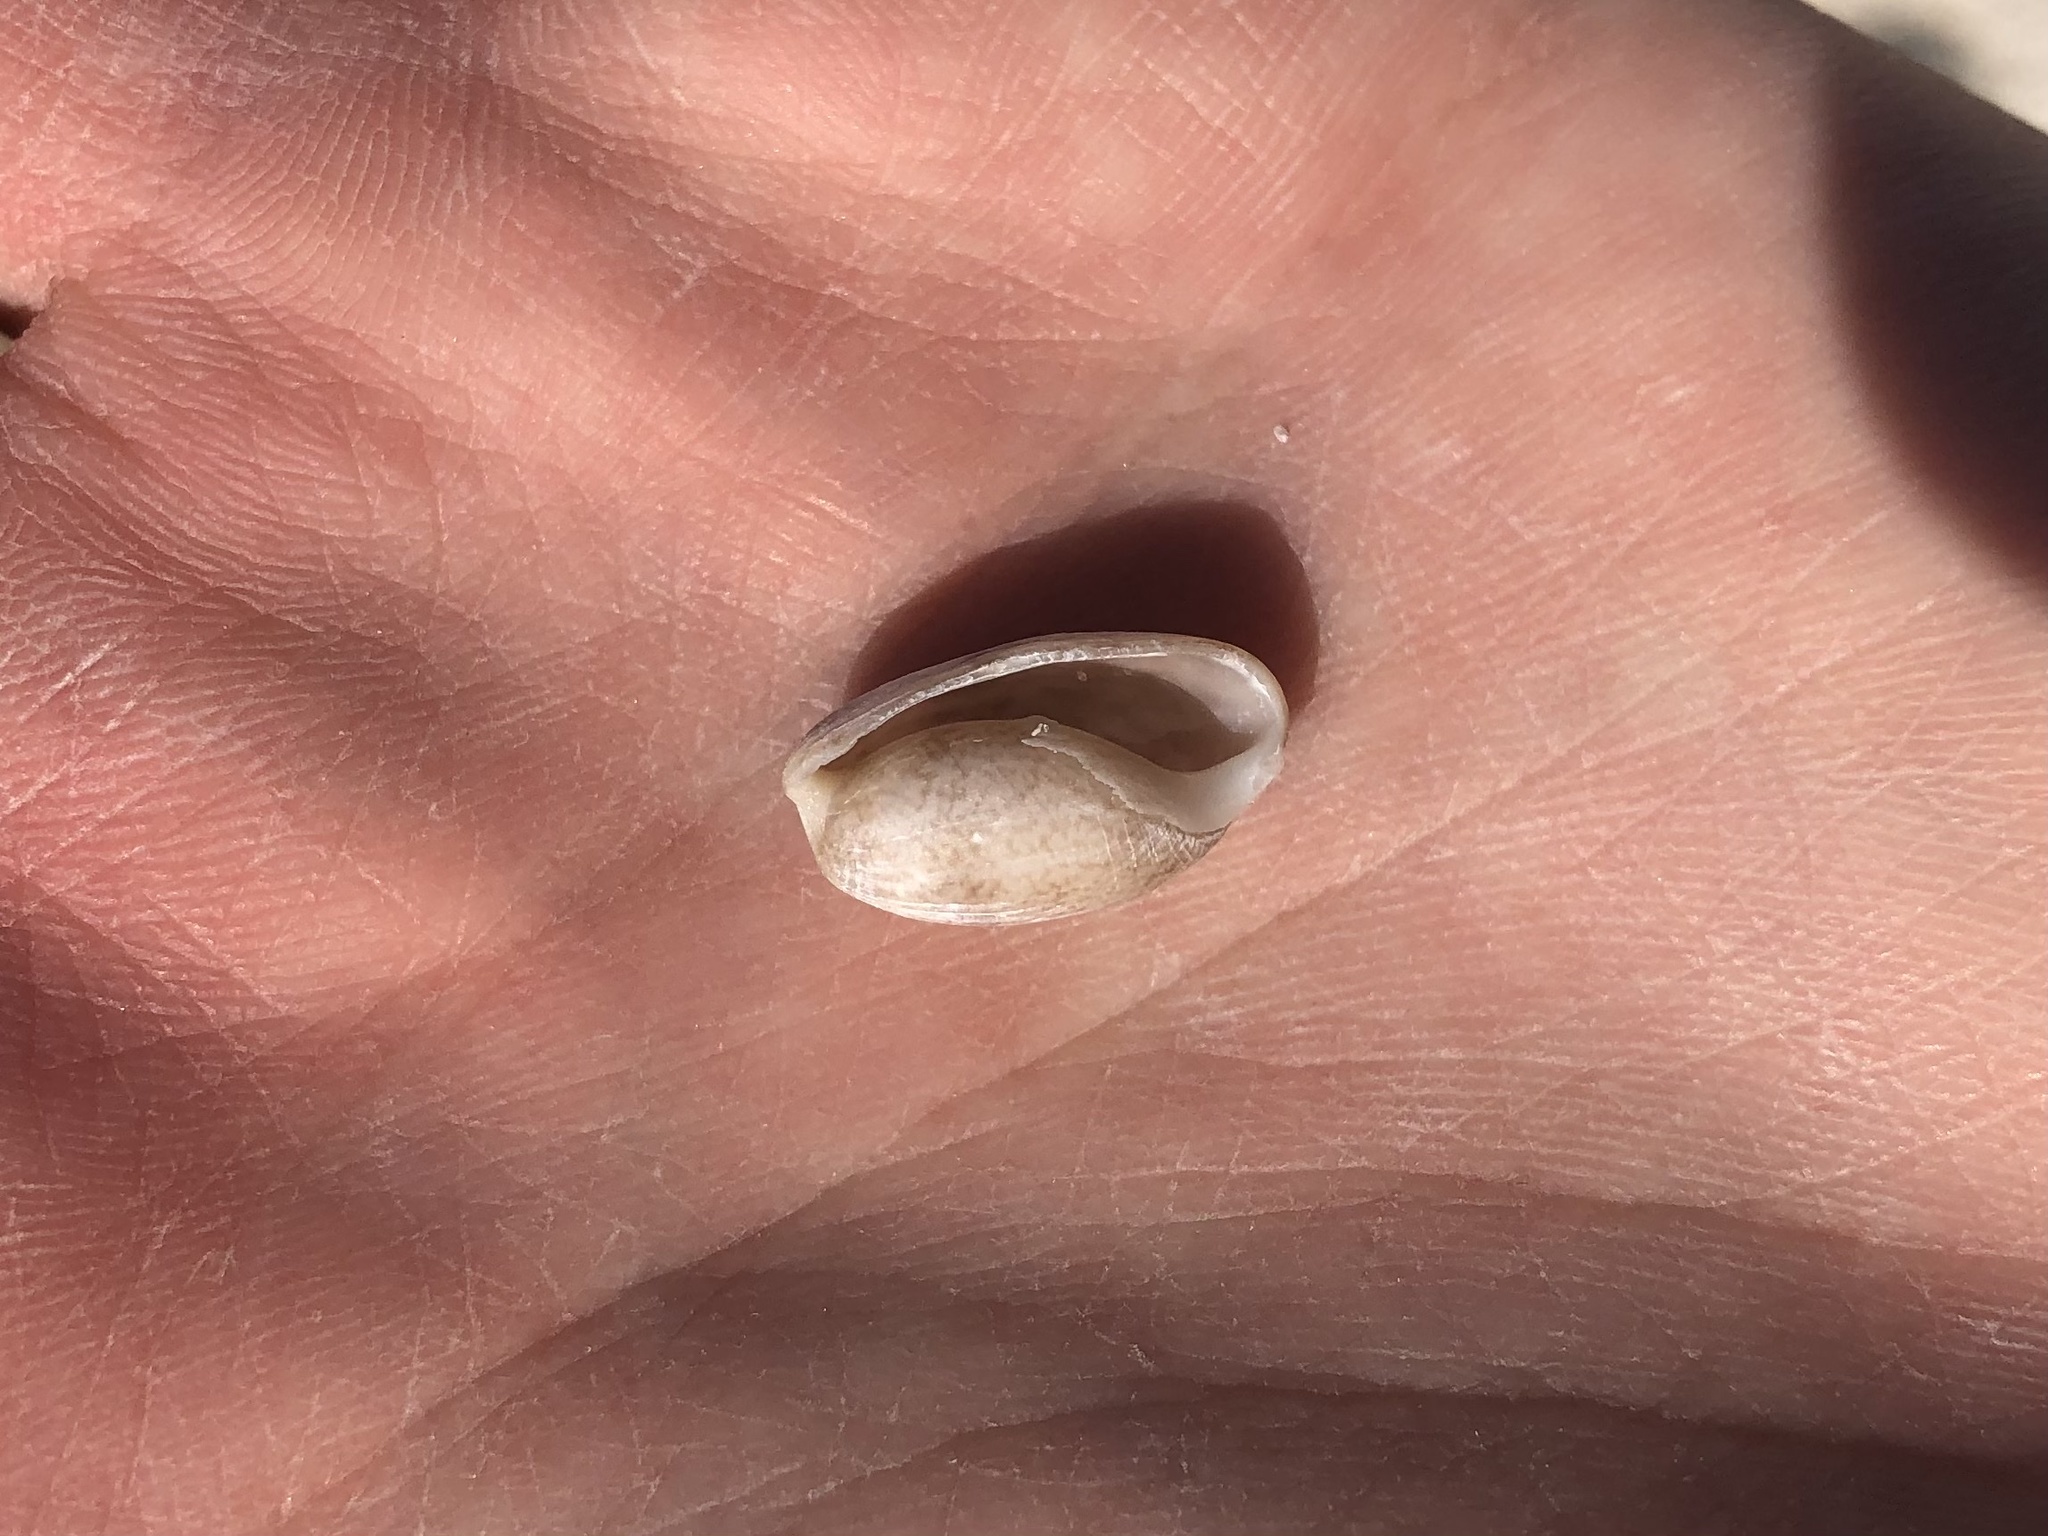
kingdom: Animalia
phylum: Mollusca
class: Gastropoda
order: Cephalaspidea
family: Bullidae
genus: Bulla
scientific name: Bulla occidentalis
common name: Common west-indian bubble
